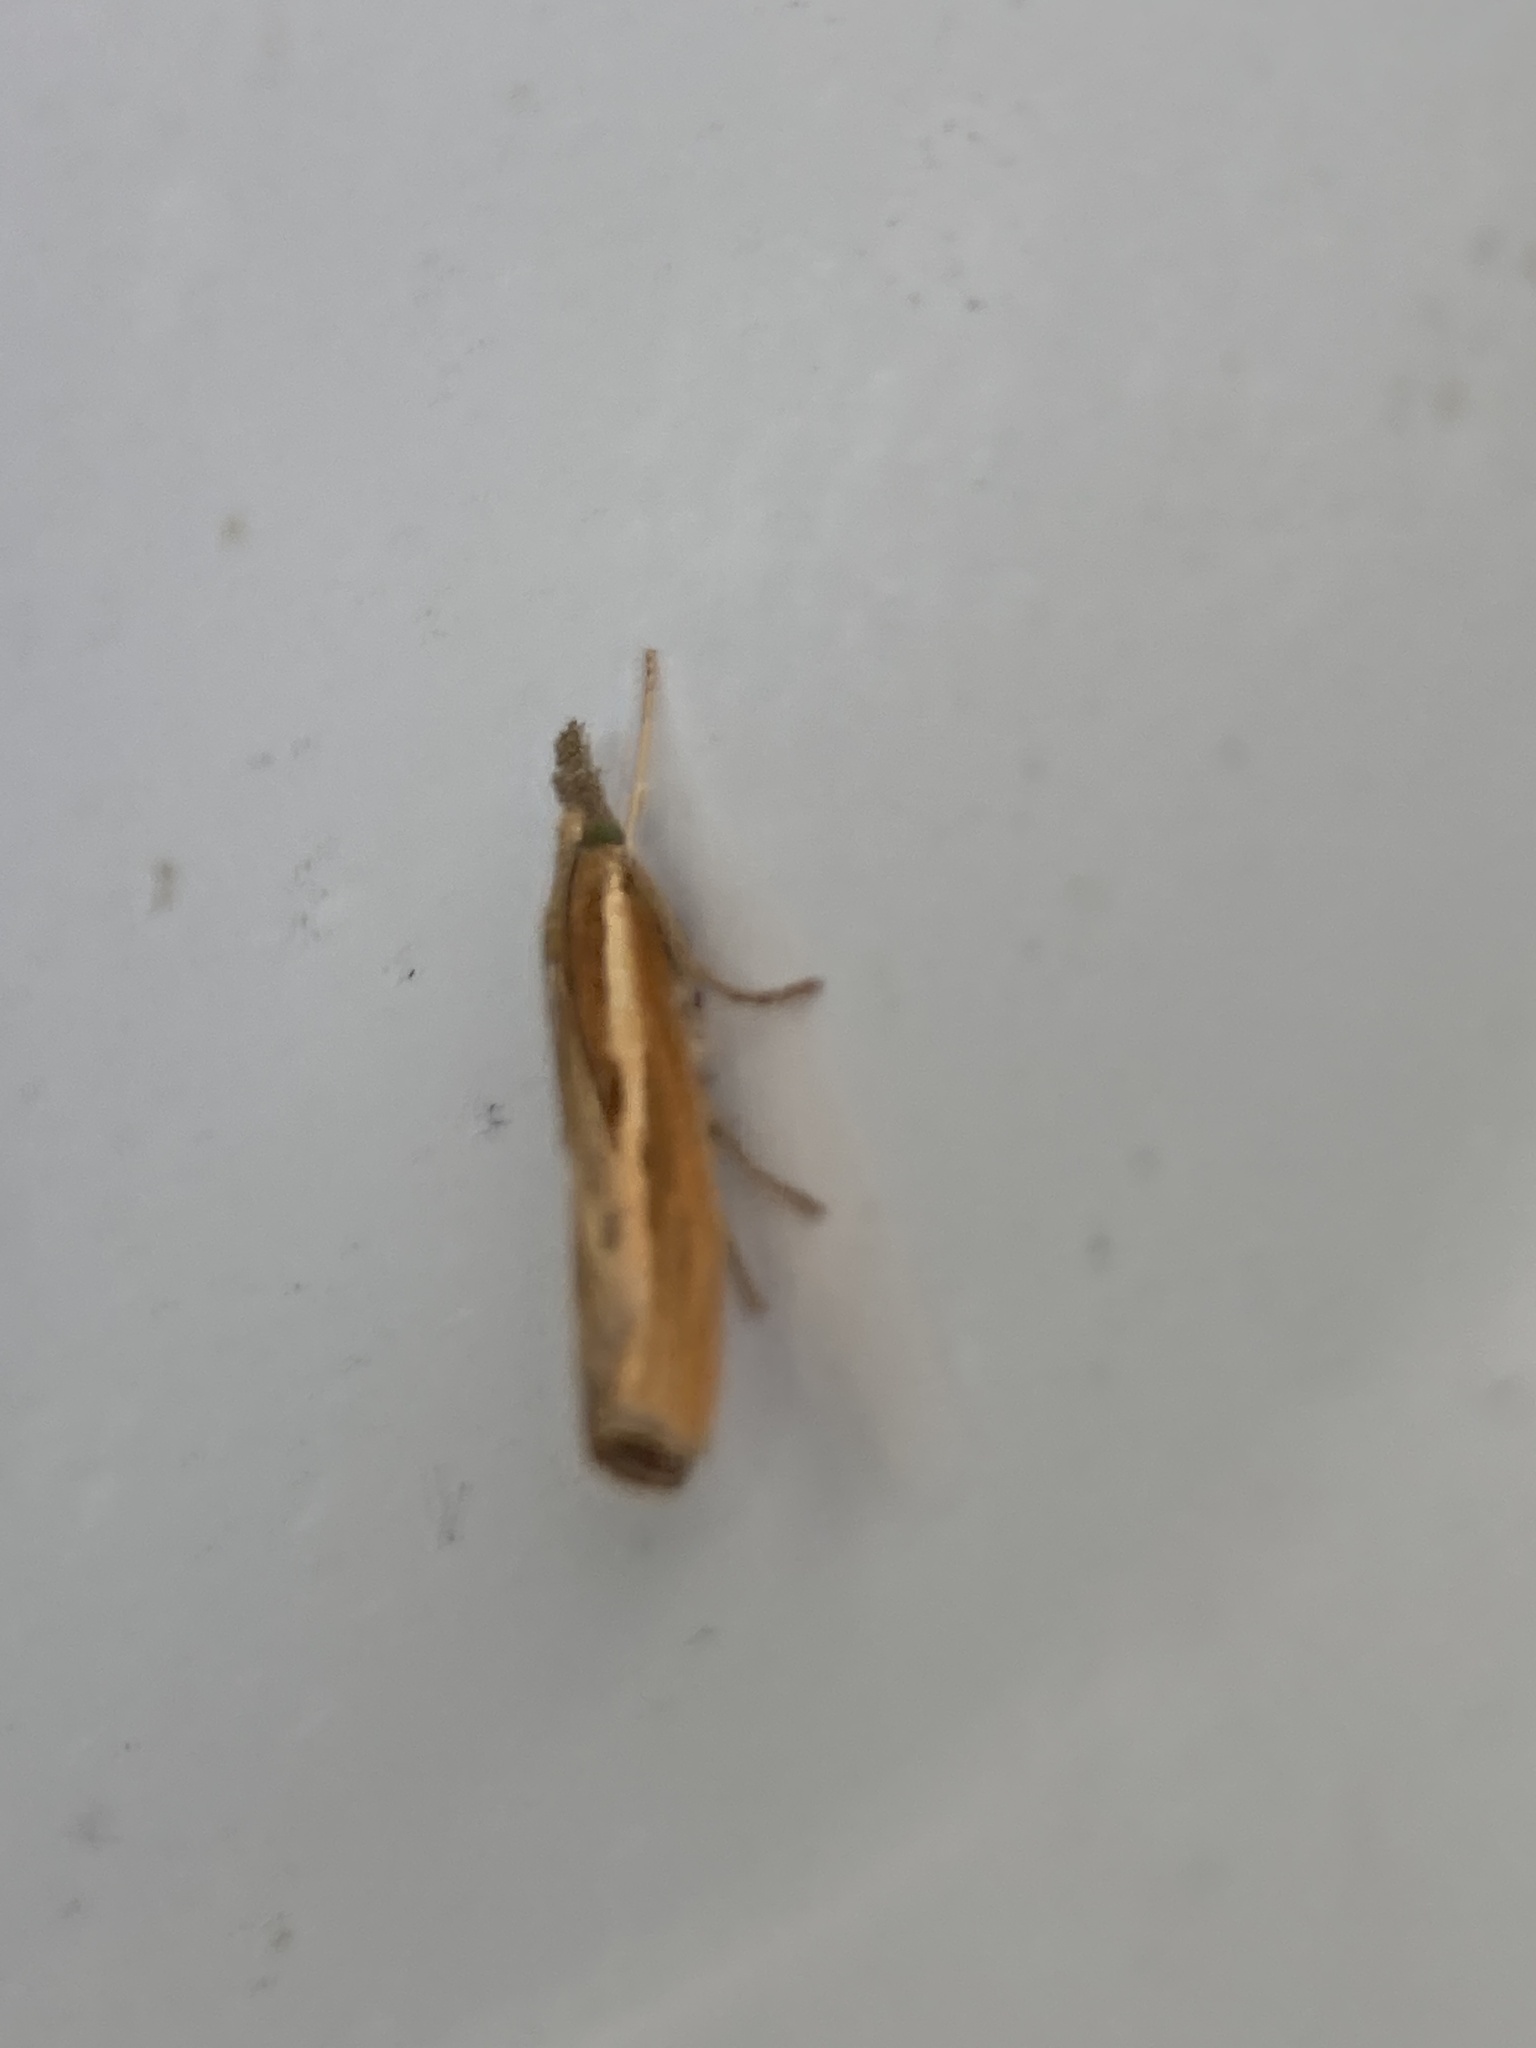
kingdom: Animalia
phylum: Arthropoda
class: Insecta
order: Lepidoptera
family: Crambidae
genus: Agriphila
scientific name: Agriphila tristellus
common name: Common grass-veneer
